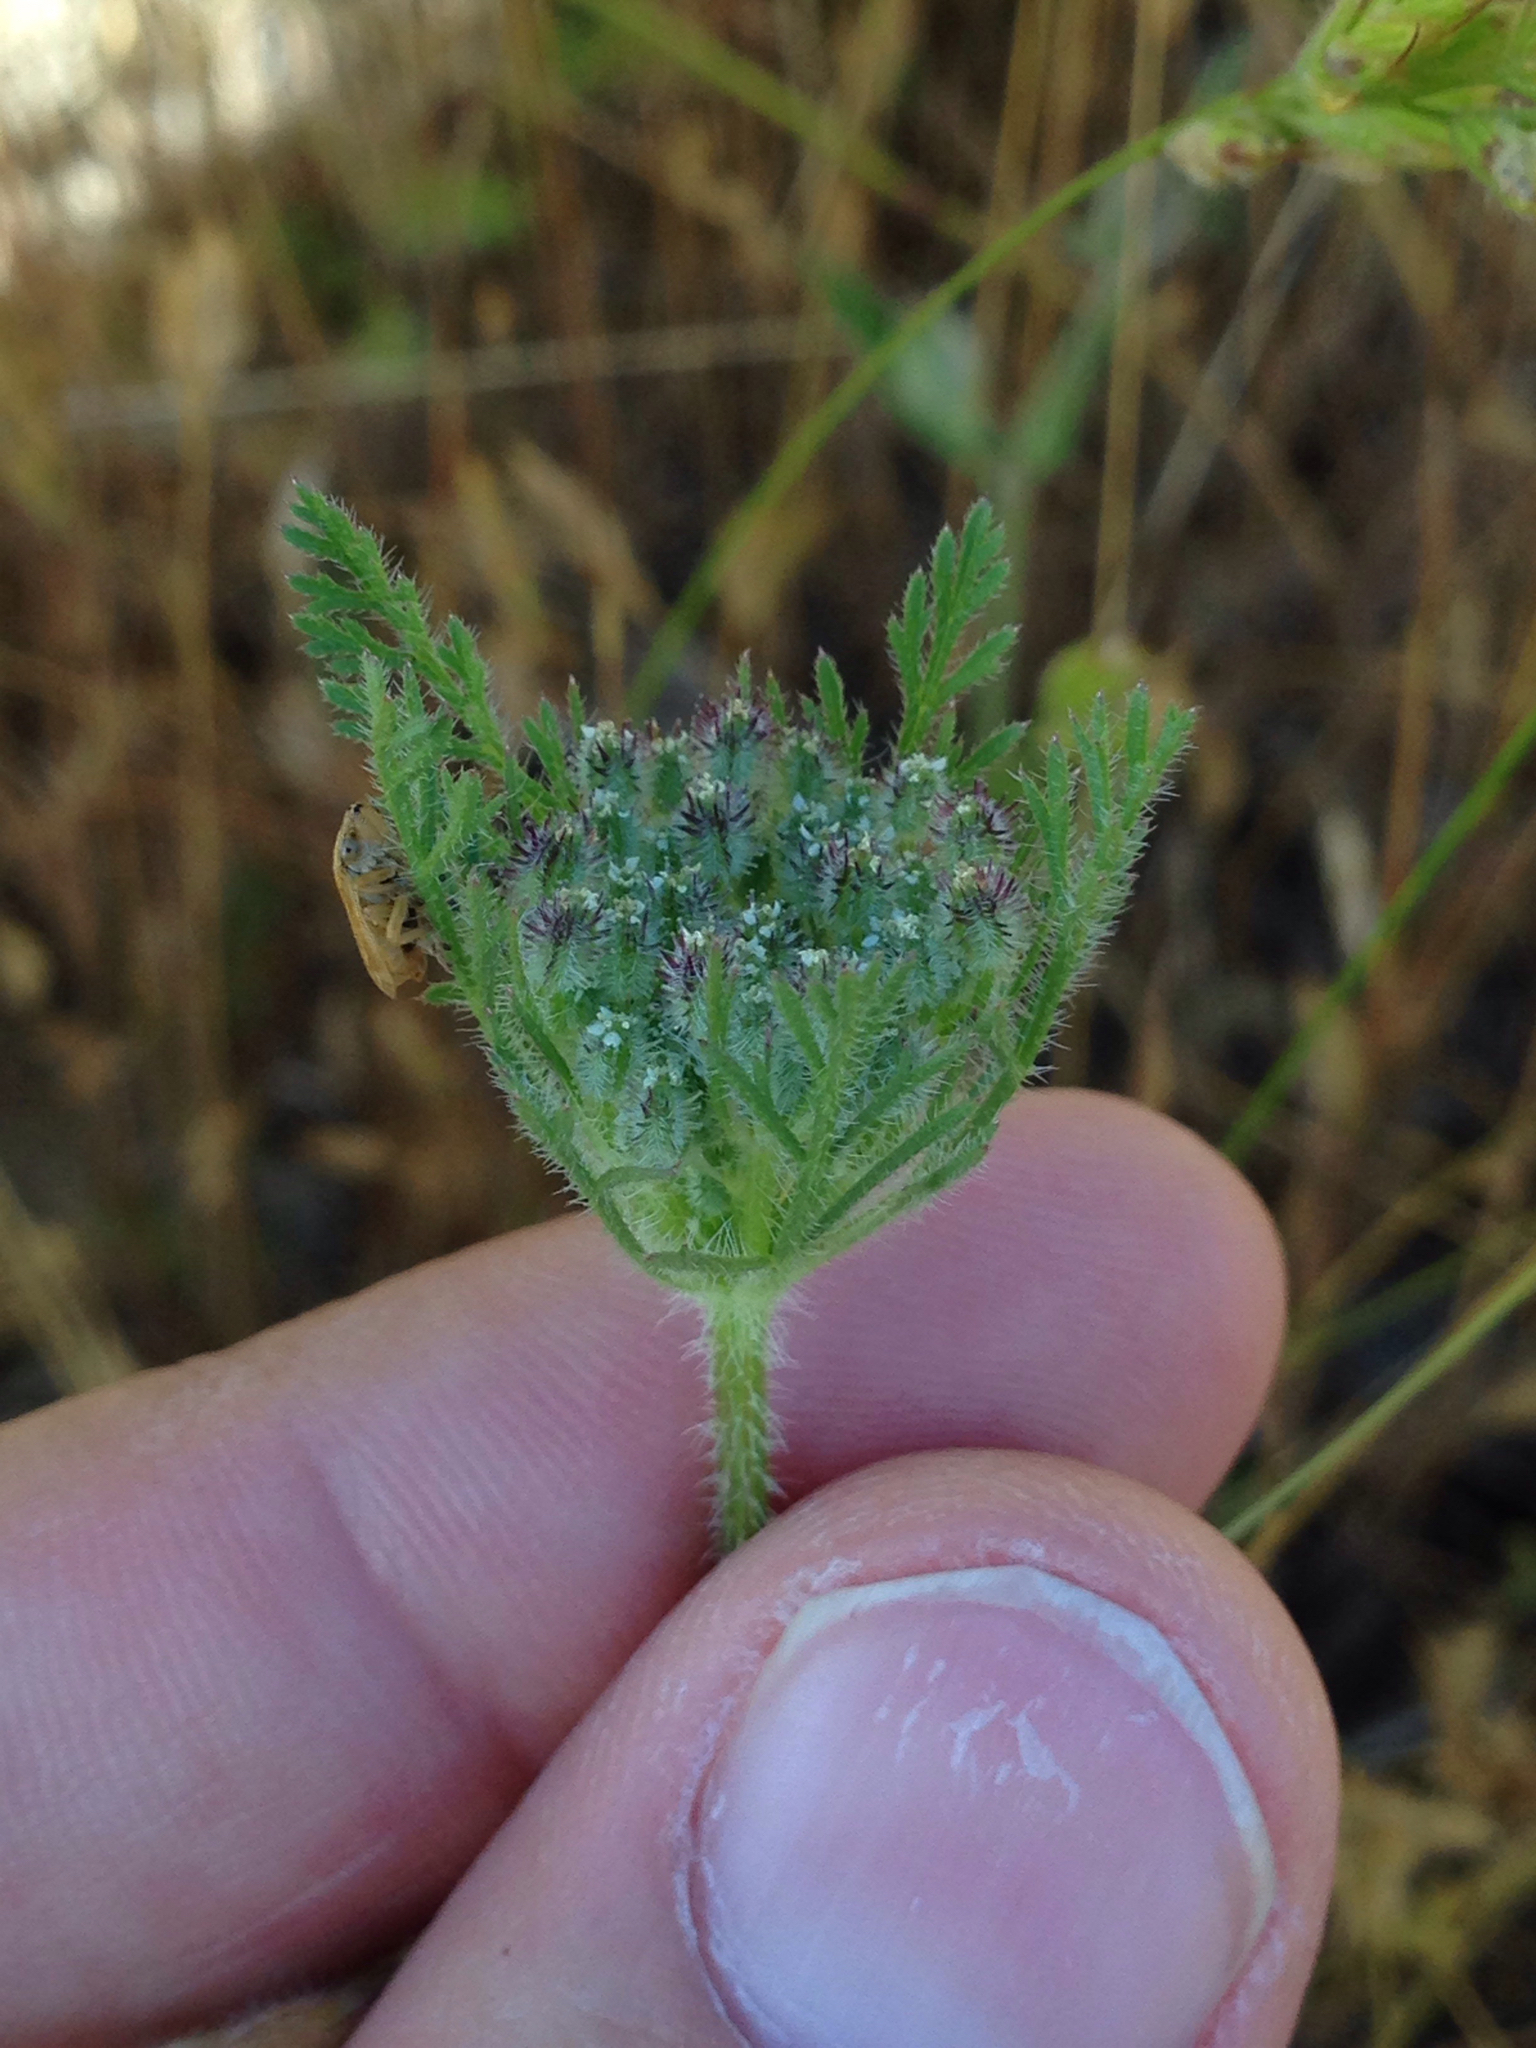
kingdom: Plantae
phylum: Tracheophyta
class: Magnoliopsida
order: Apiales
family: Apiaceae
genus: Daucus
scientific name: Daucus pusillus
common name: Southwest wild carrot
